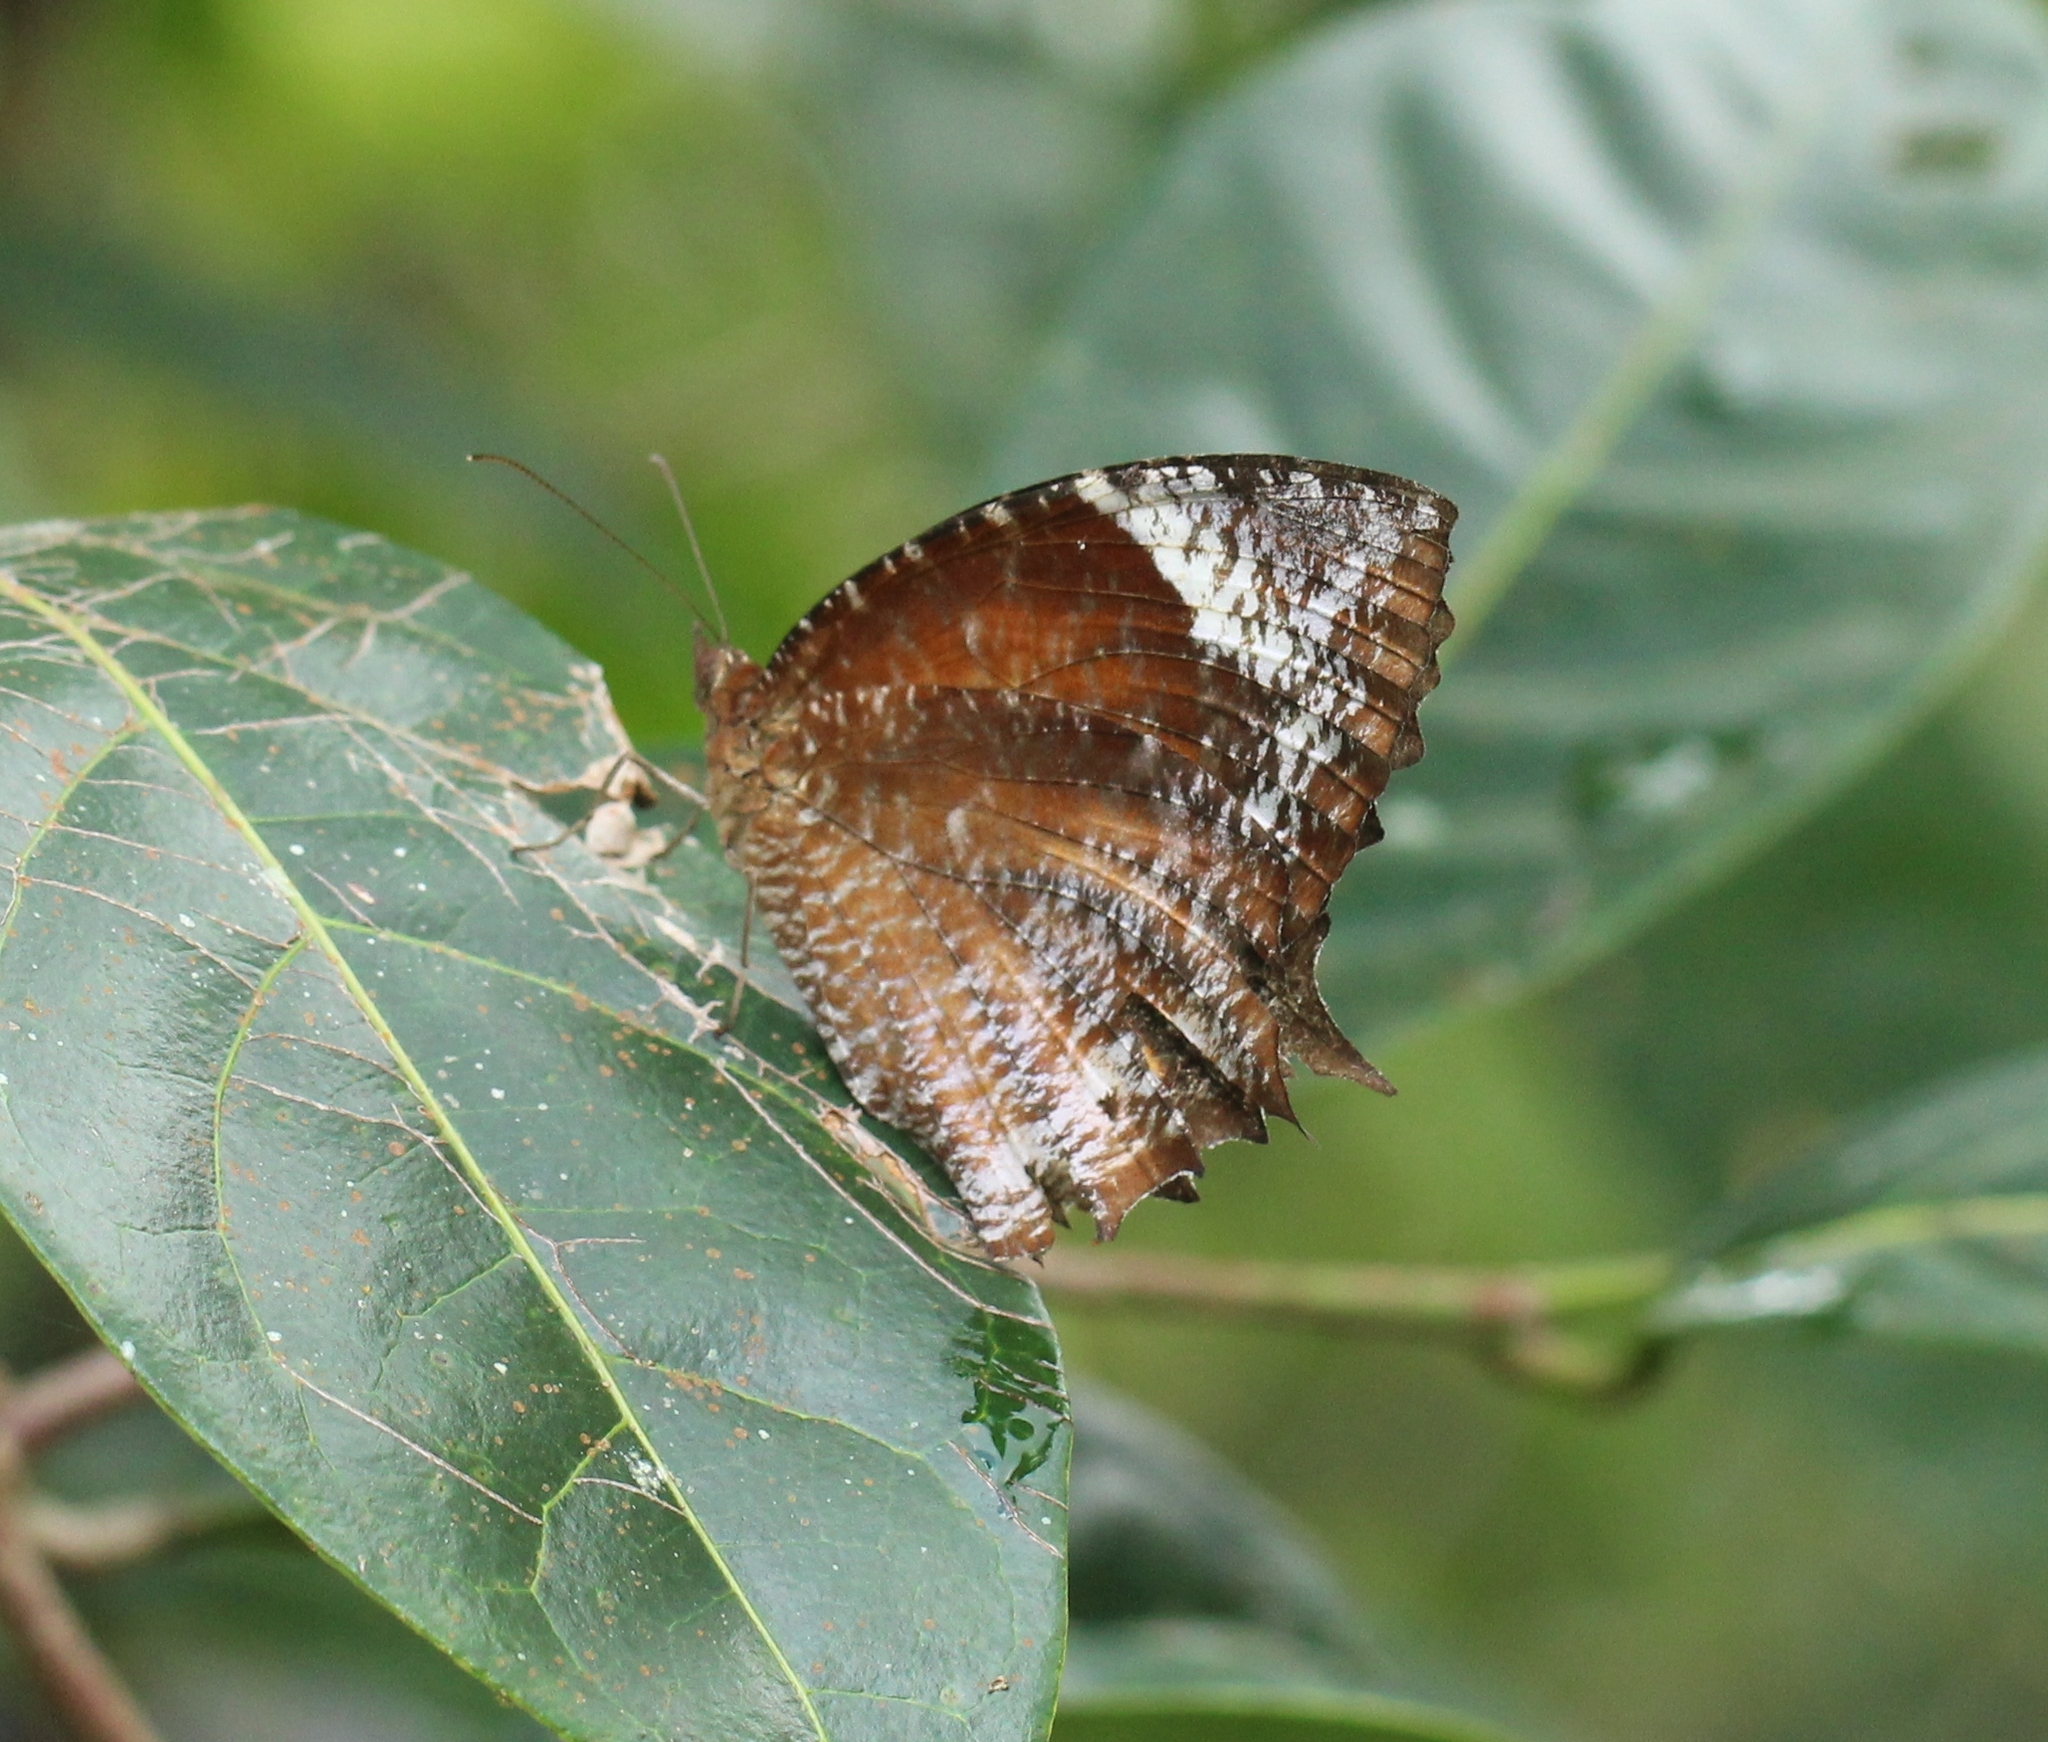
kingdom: Animalia
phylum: Arthropoda
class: Insecta
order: Lepidoptera
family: Nymphalidae
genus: Elymnias
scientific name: Elymnias caudata
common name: Tailed palmfly
